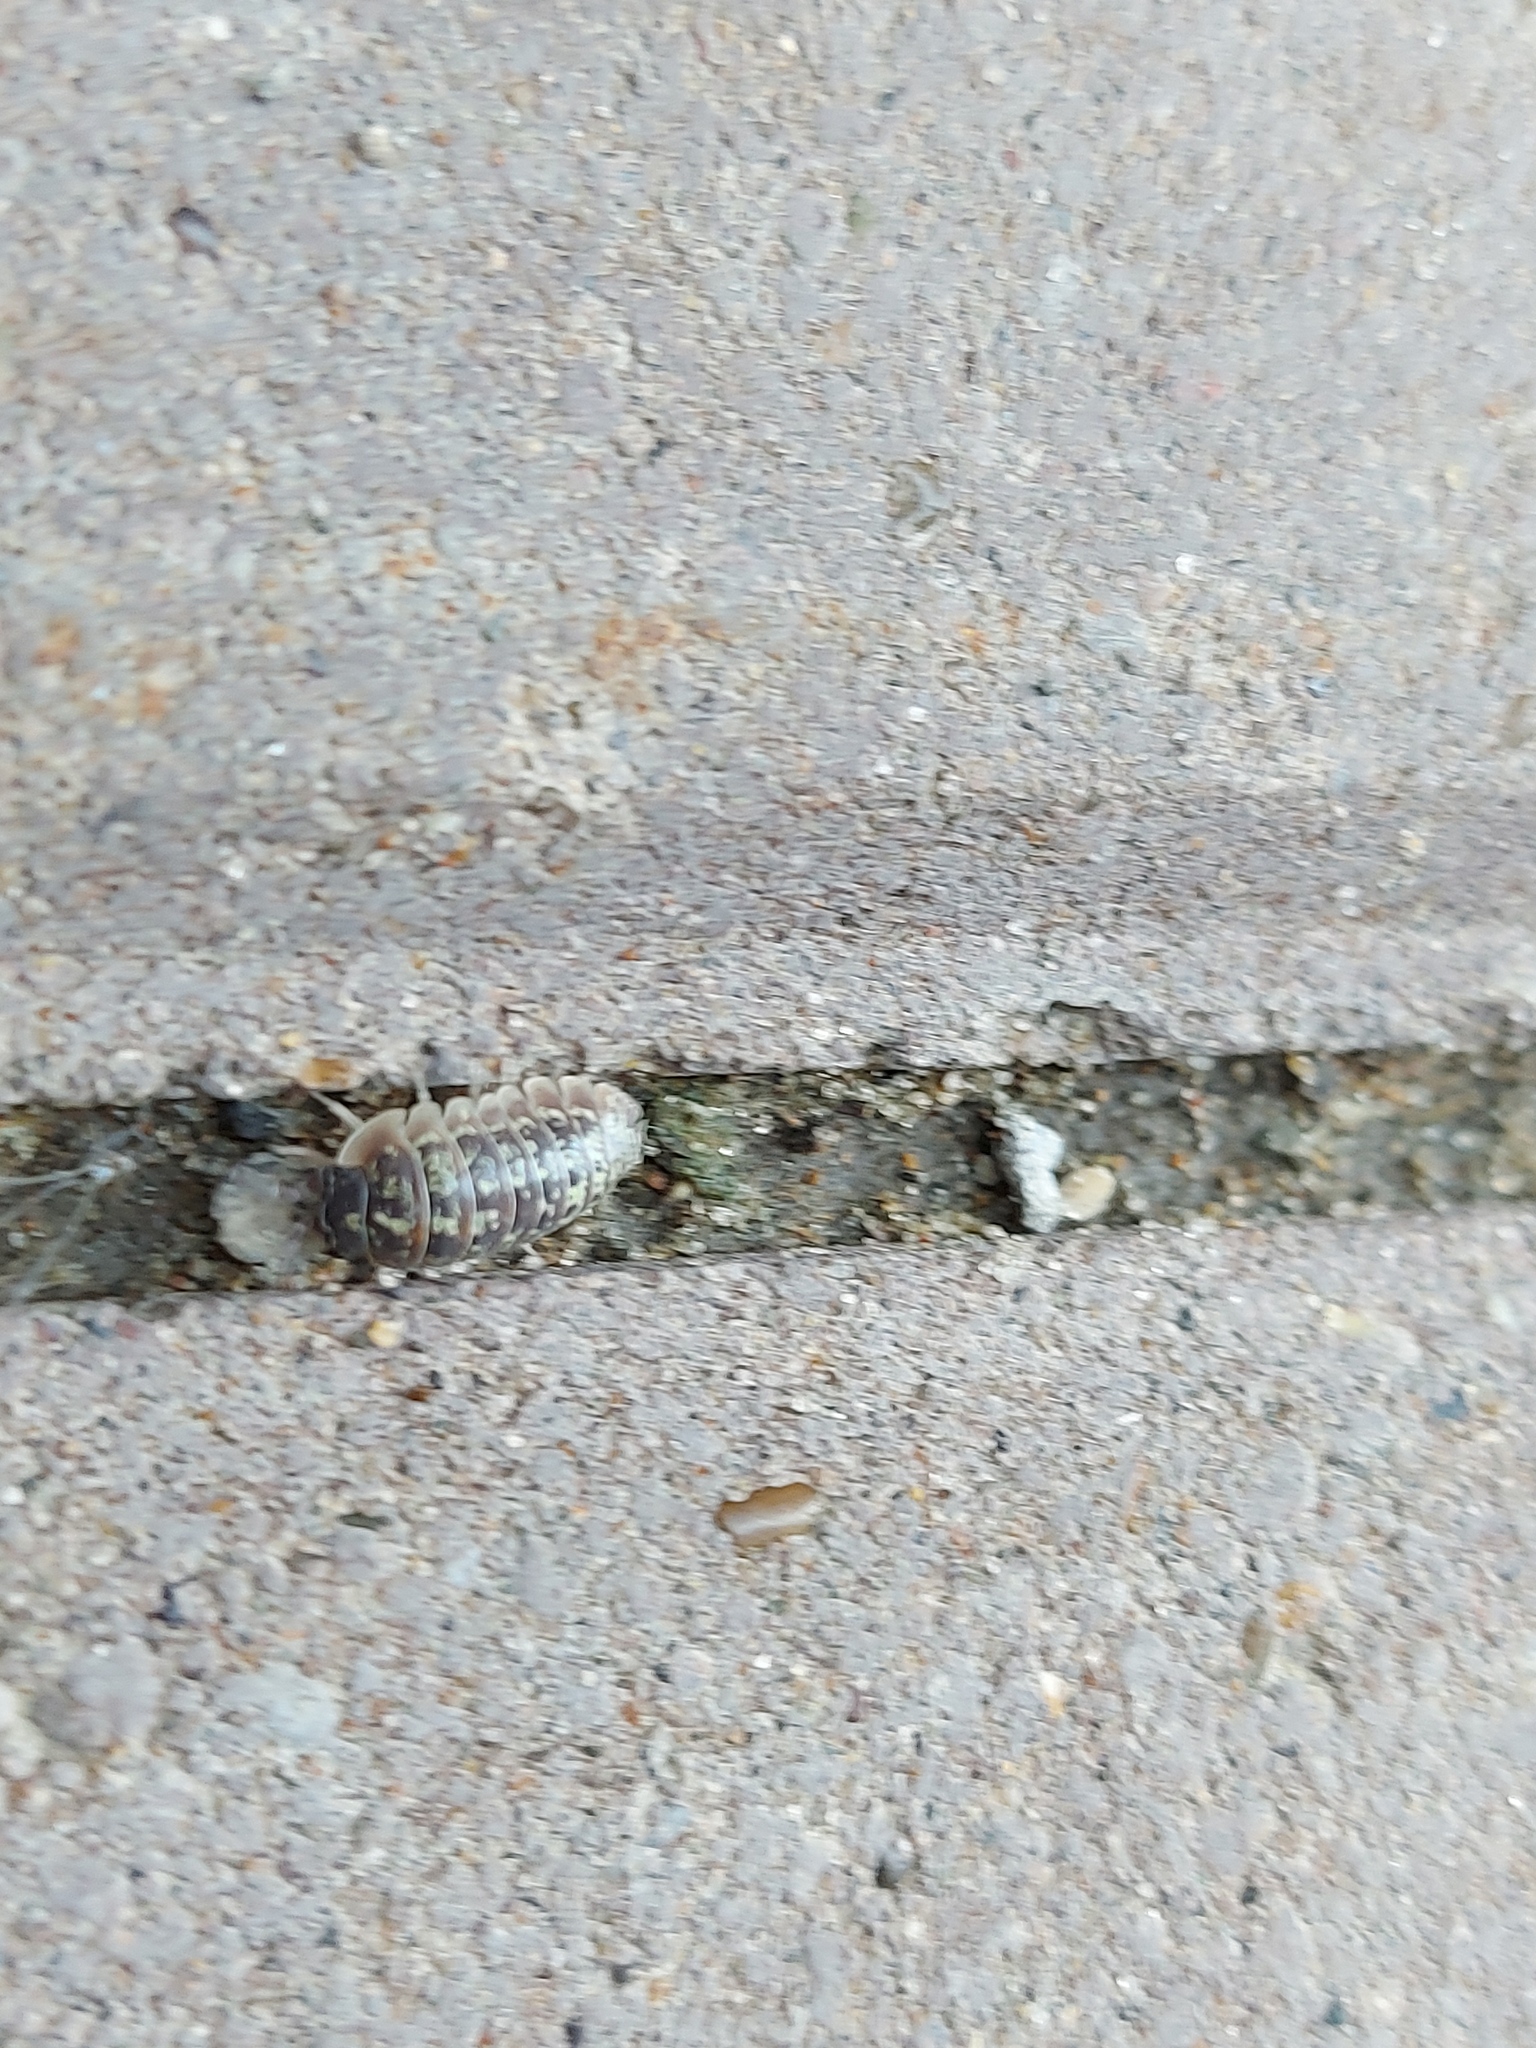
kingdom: Animalia
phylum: Arthropoda
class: Malacostraca
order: Isopoda
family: Armadillidiidae
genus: Armadillidium
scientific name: Armadillidium versicolor
